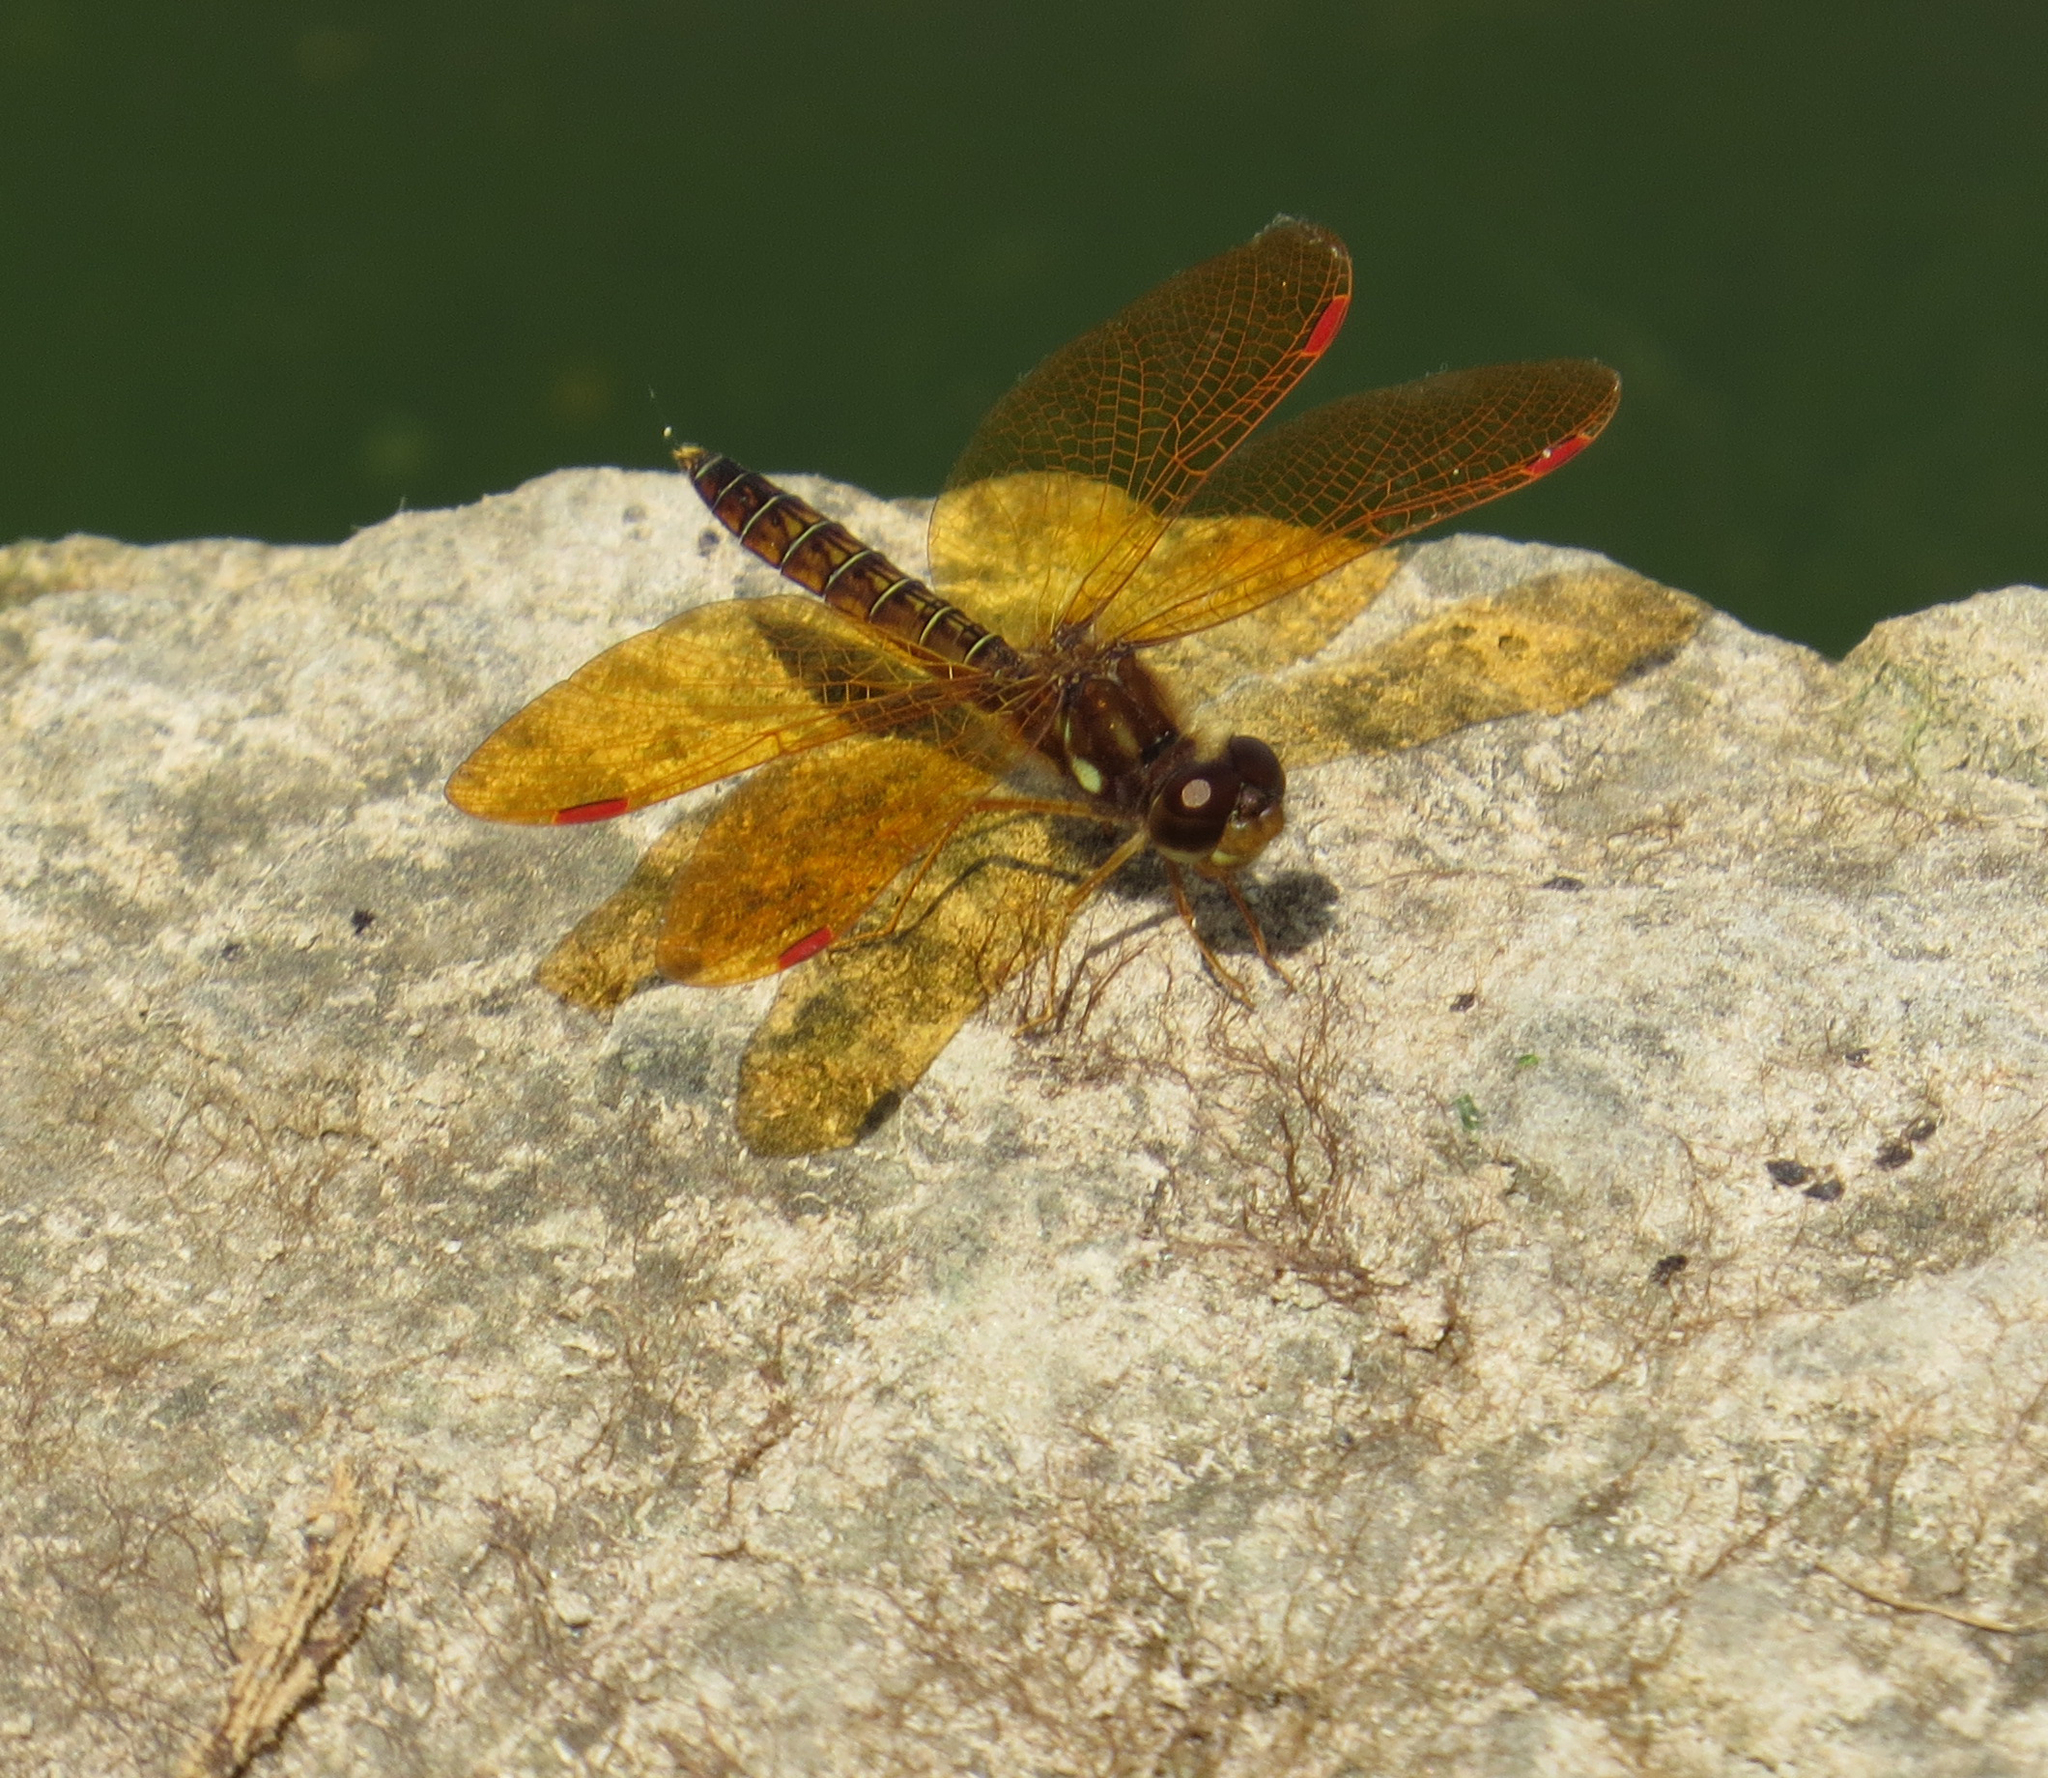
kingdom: Animalia
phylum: Arthropoda
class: Insecta
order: Odonata
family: Libellulidae
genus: Perithemis
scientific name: Perithemis tenera
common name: Eastern amberwing
